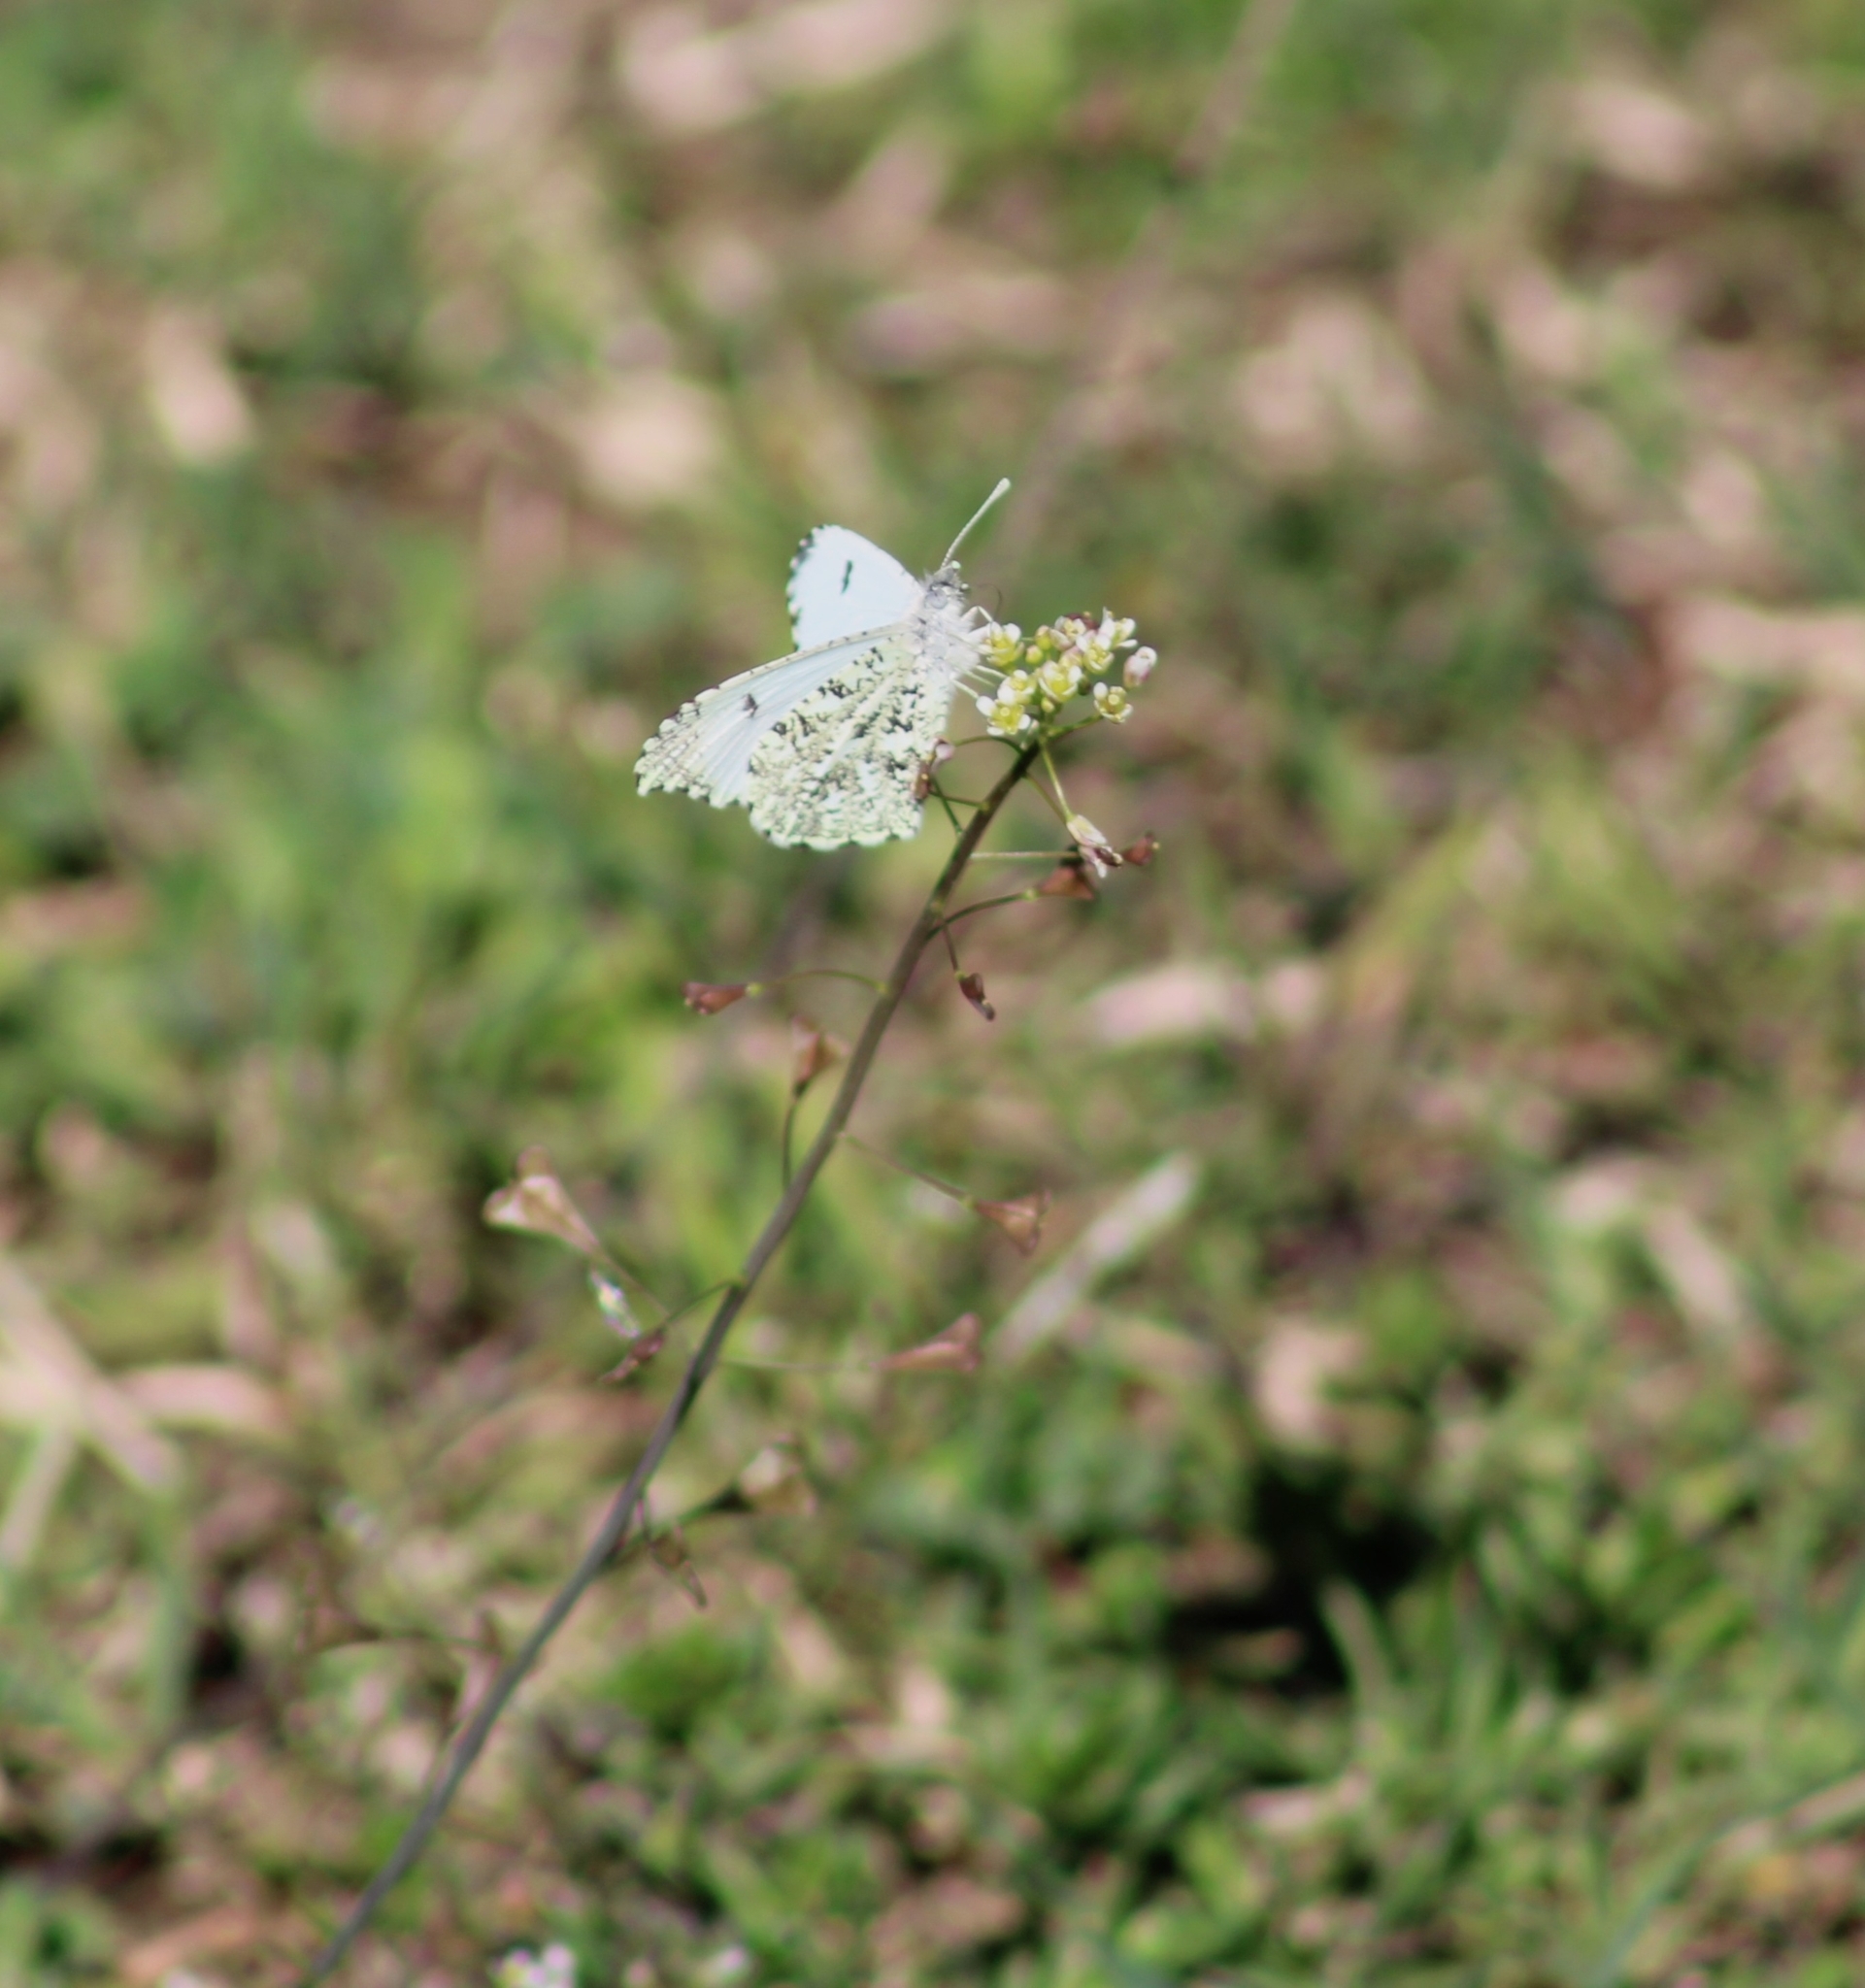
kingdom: Animalia
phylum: Arthropoda
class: Insecta
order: Lepidoptera
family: Pieridae
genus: Anthocharis
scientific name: Anthocharis midea
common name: Falcate orangetip
